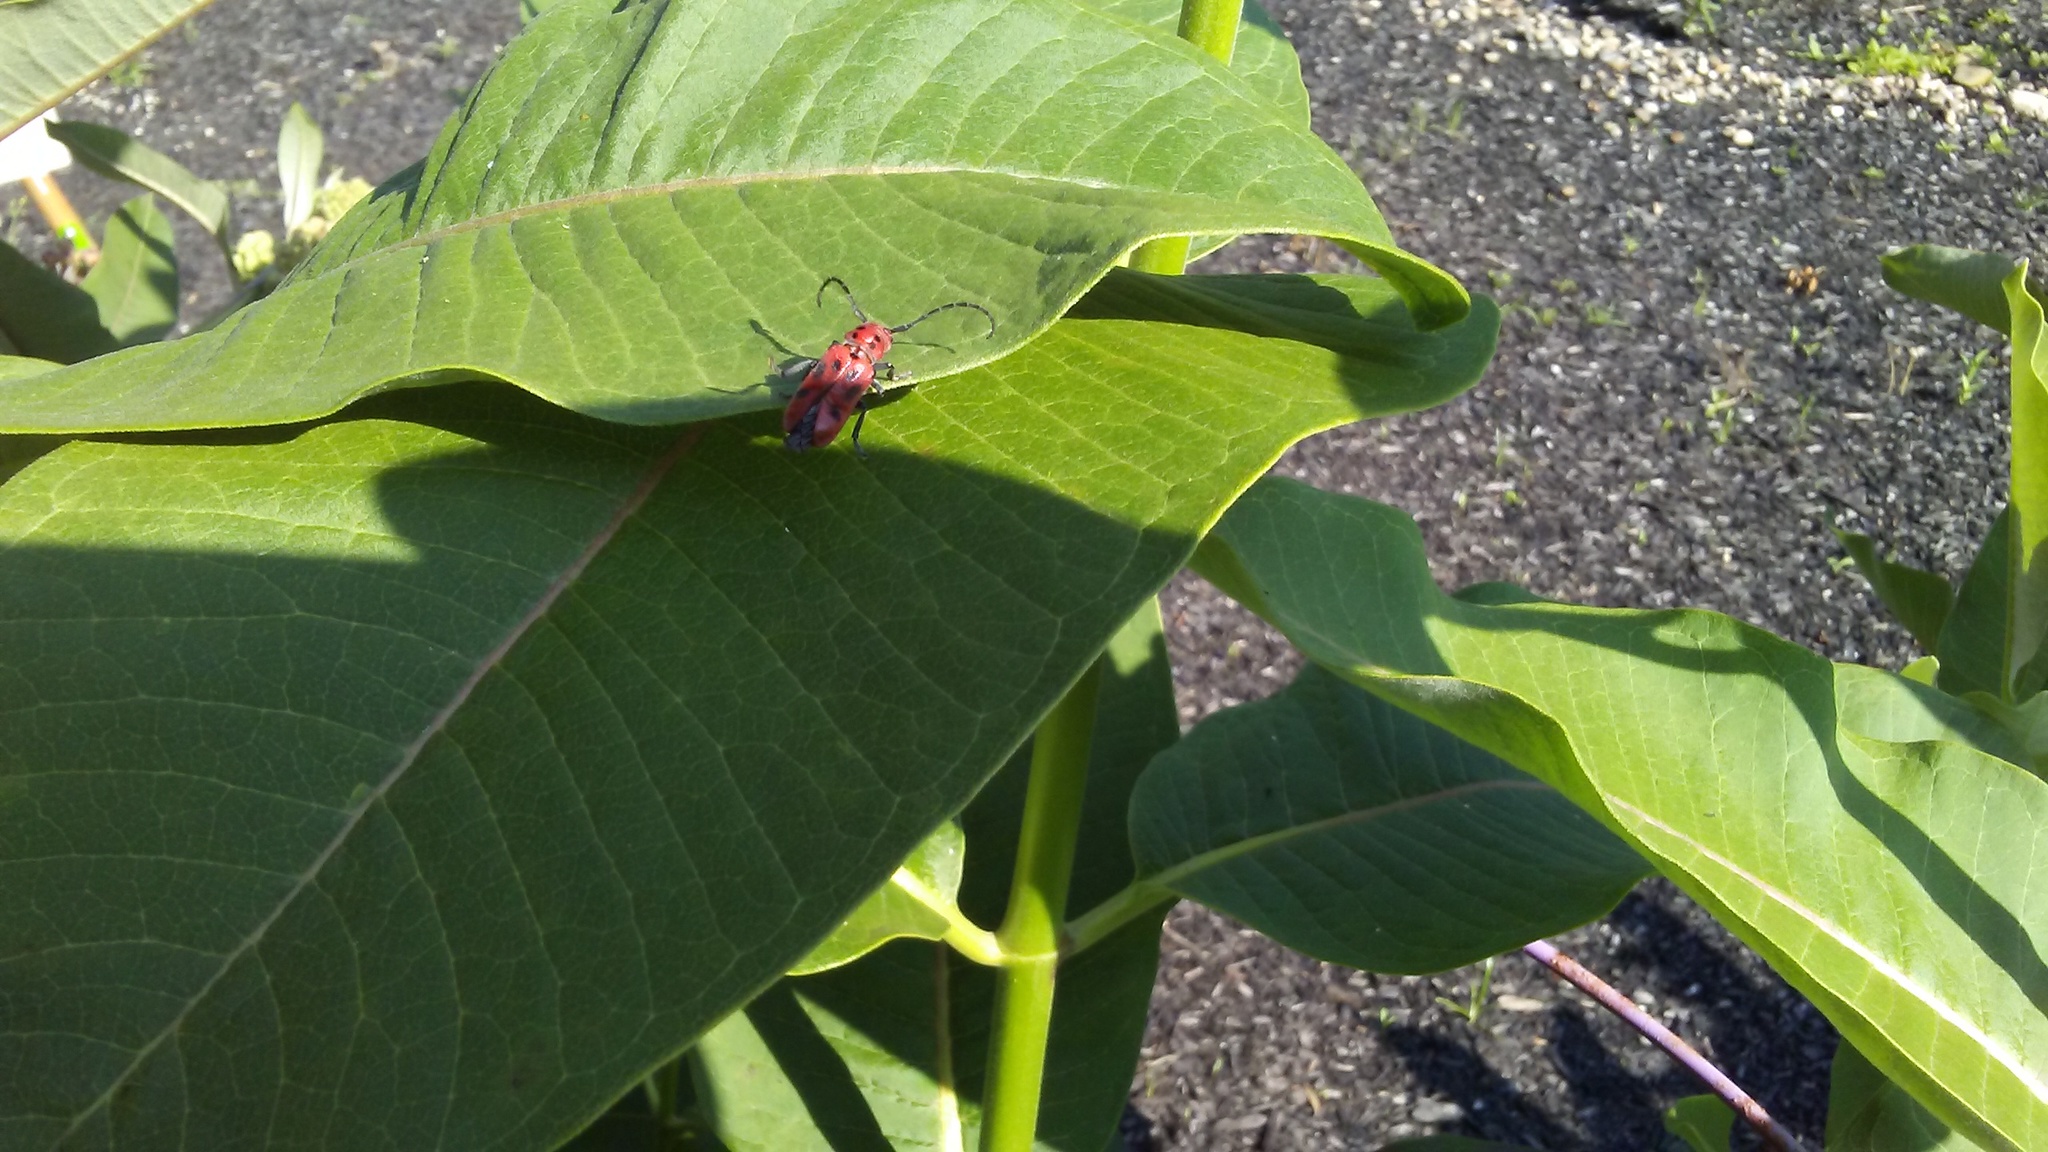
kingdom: Animalia
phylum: Arthropoda
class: Insecta
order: Coleoptera
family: Cerambycidae
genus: Tetraopes
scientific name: Tetraopes tetrophthalmus
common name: Red milkweed beetle
